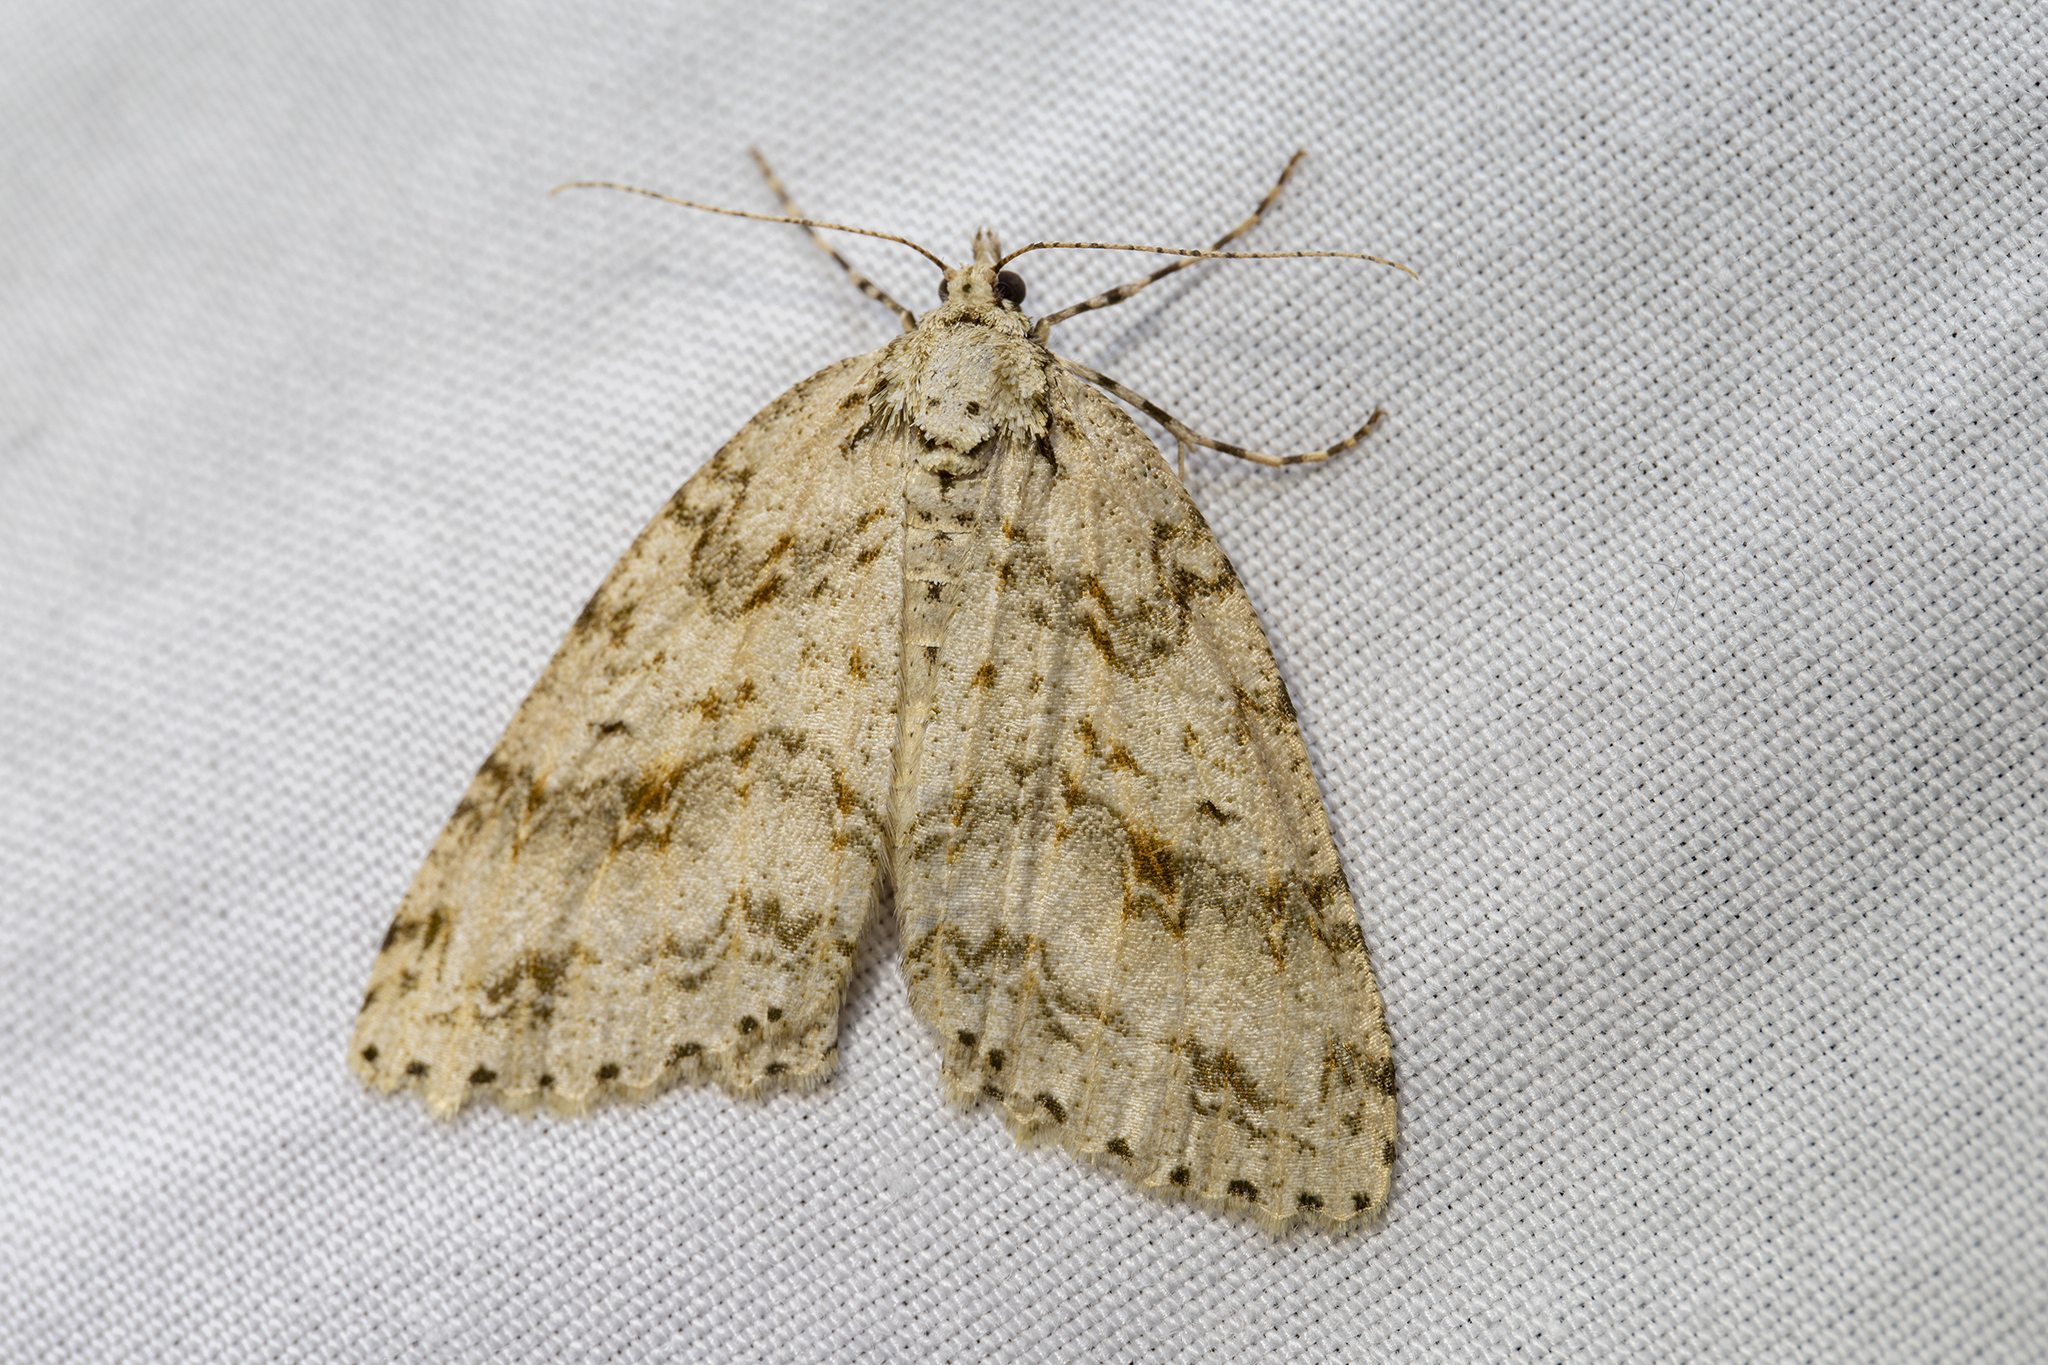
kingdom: Animalia
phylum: Arthropoda
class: Insecta
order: Lepidoptera
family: Geometridae
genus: Pseudocoremia
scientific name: Pseudocoremia rudisata
